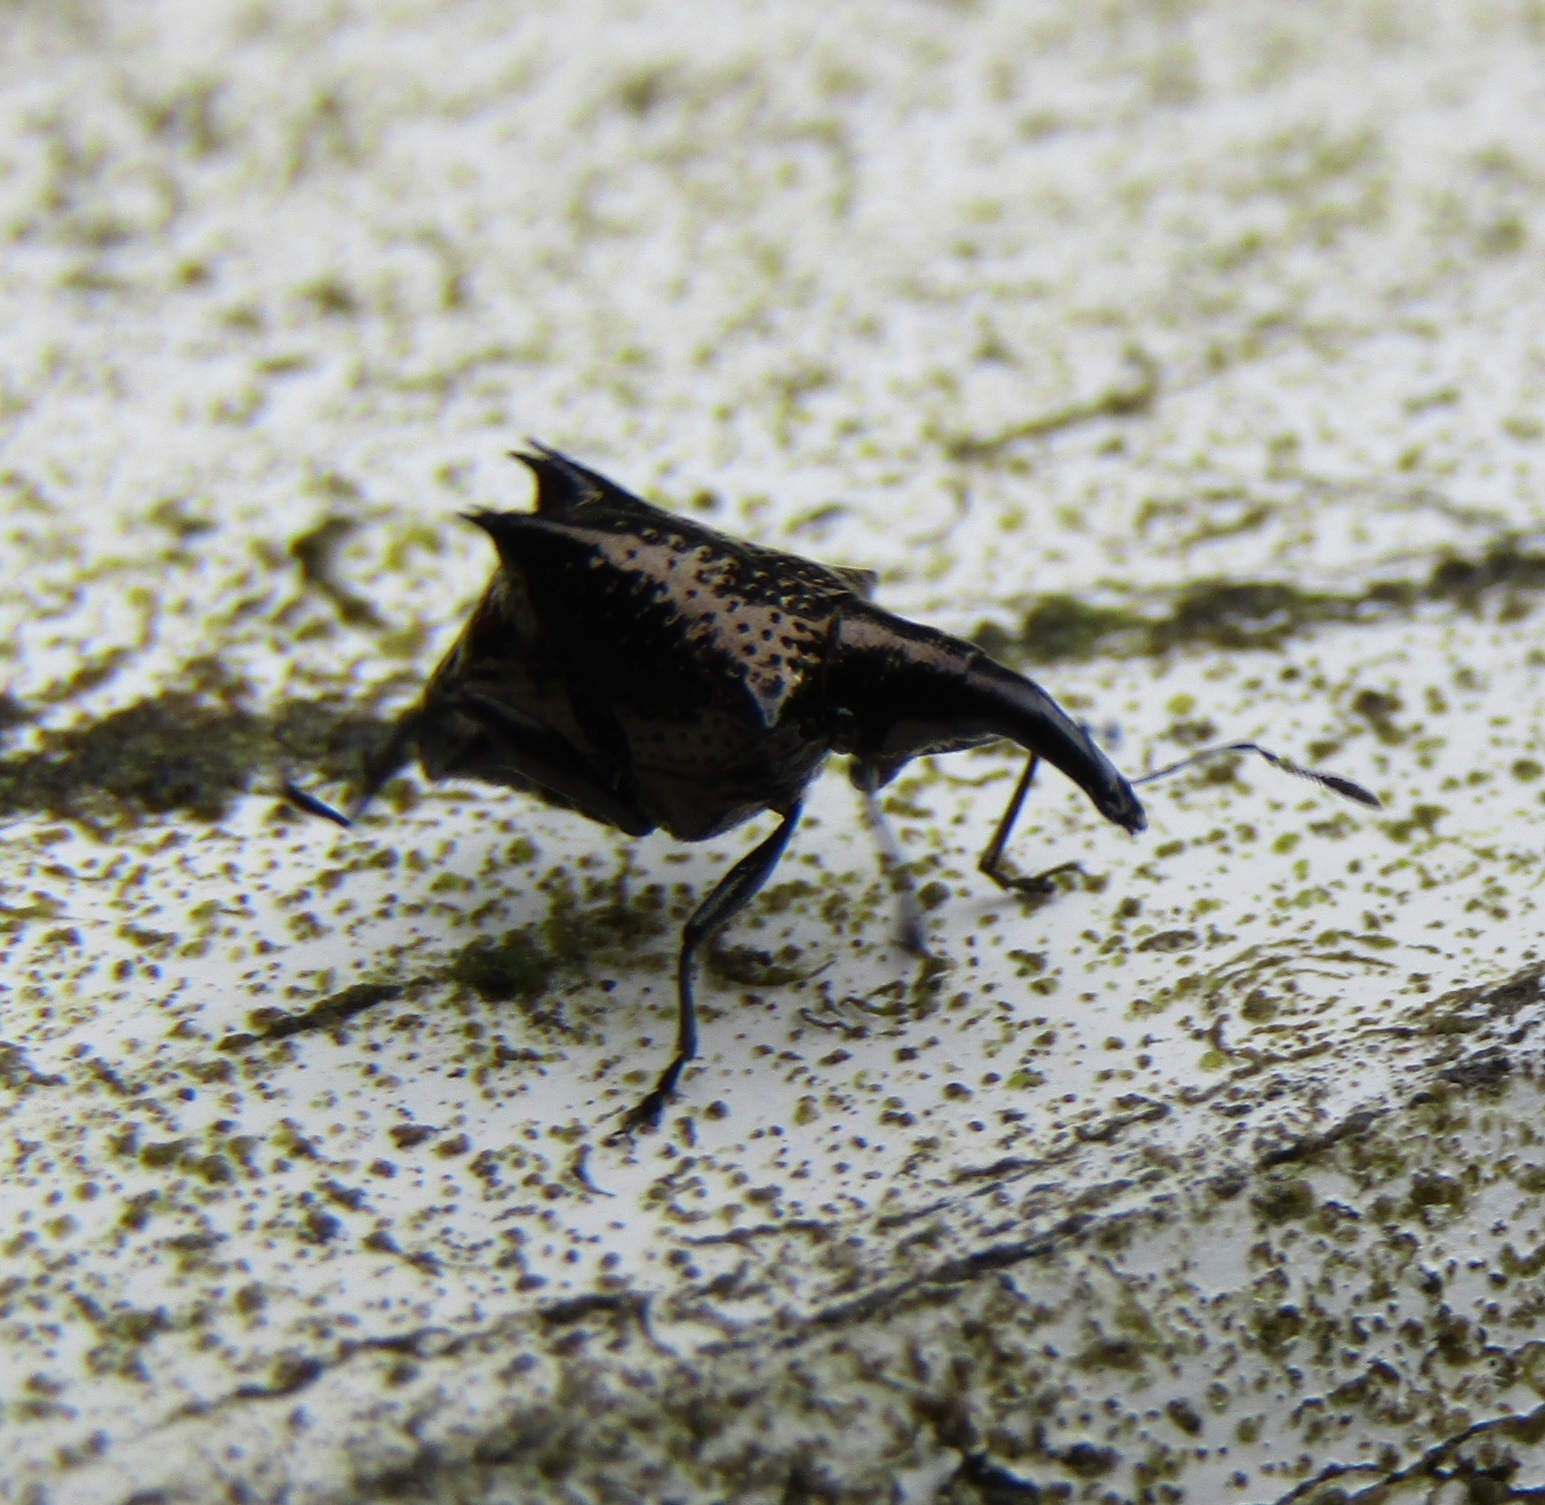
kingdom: Animalia
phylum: Arthropoda
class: Insecta
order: Coleoptera
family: Curculionidae
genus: Scolopterus
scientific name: Scolopterus tetracanthus
